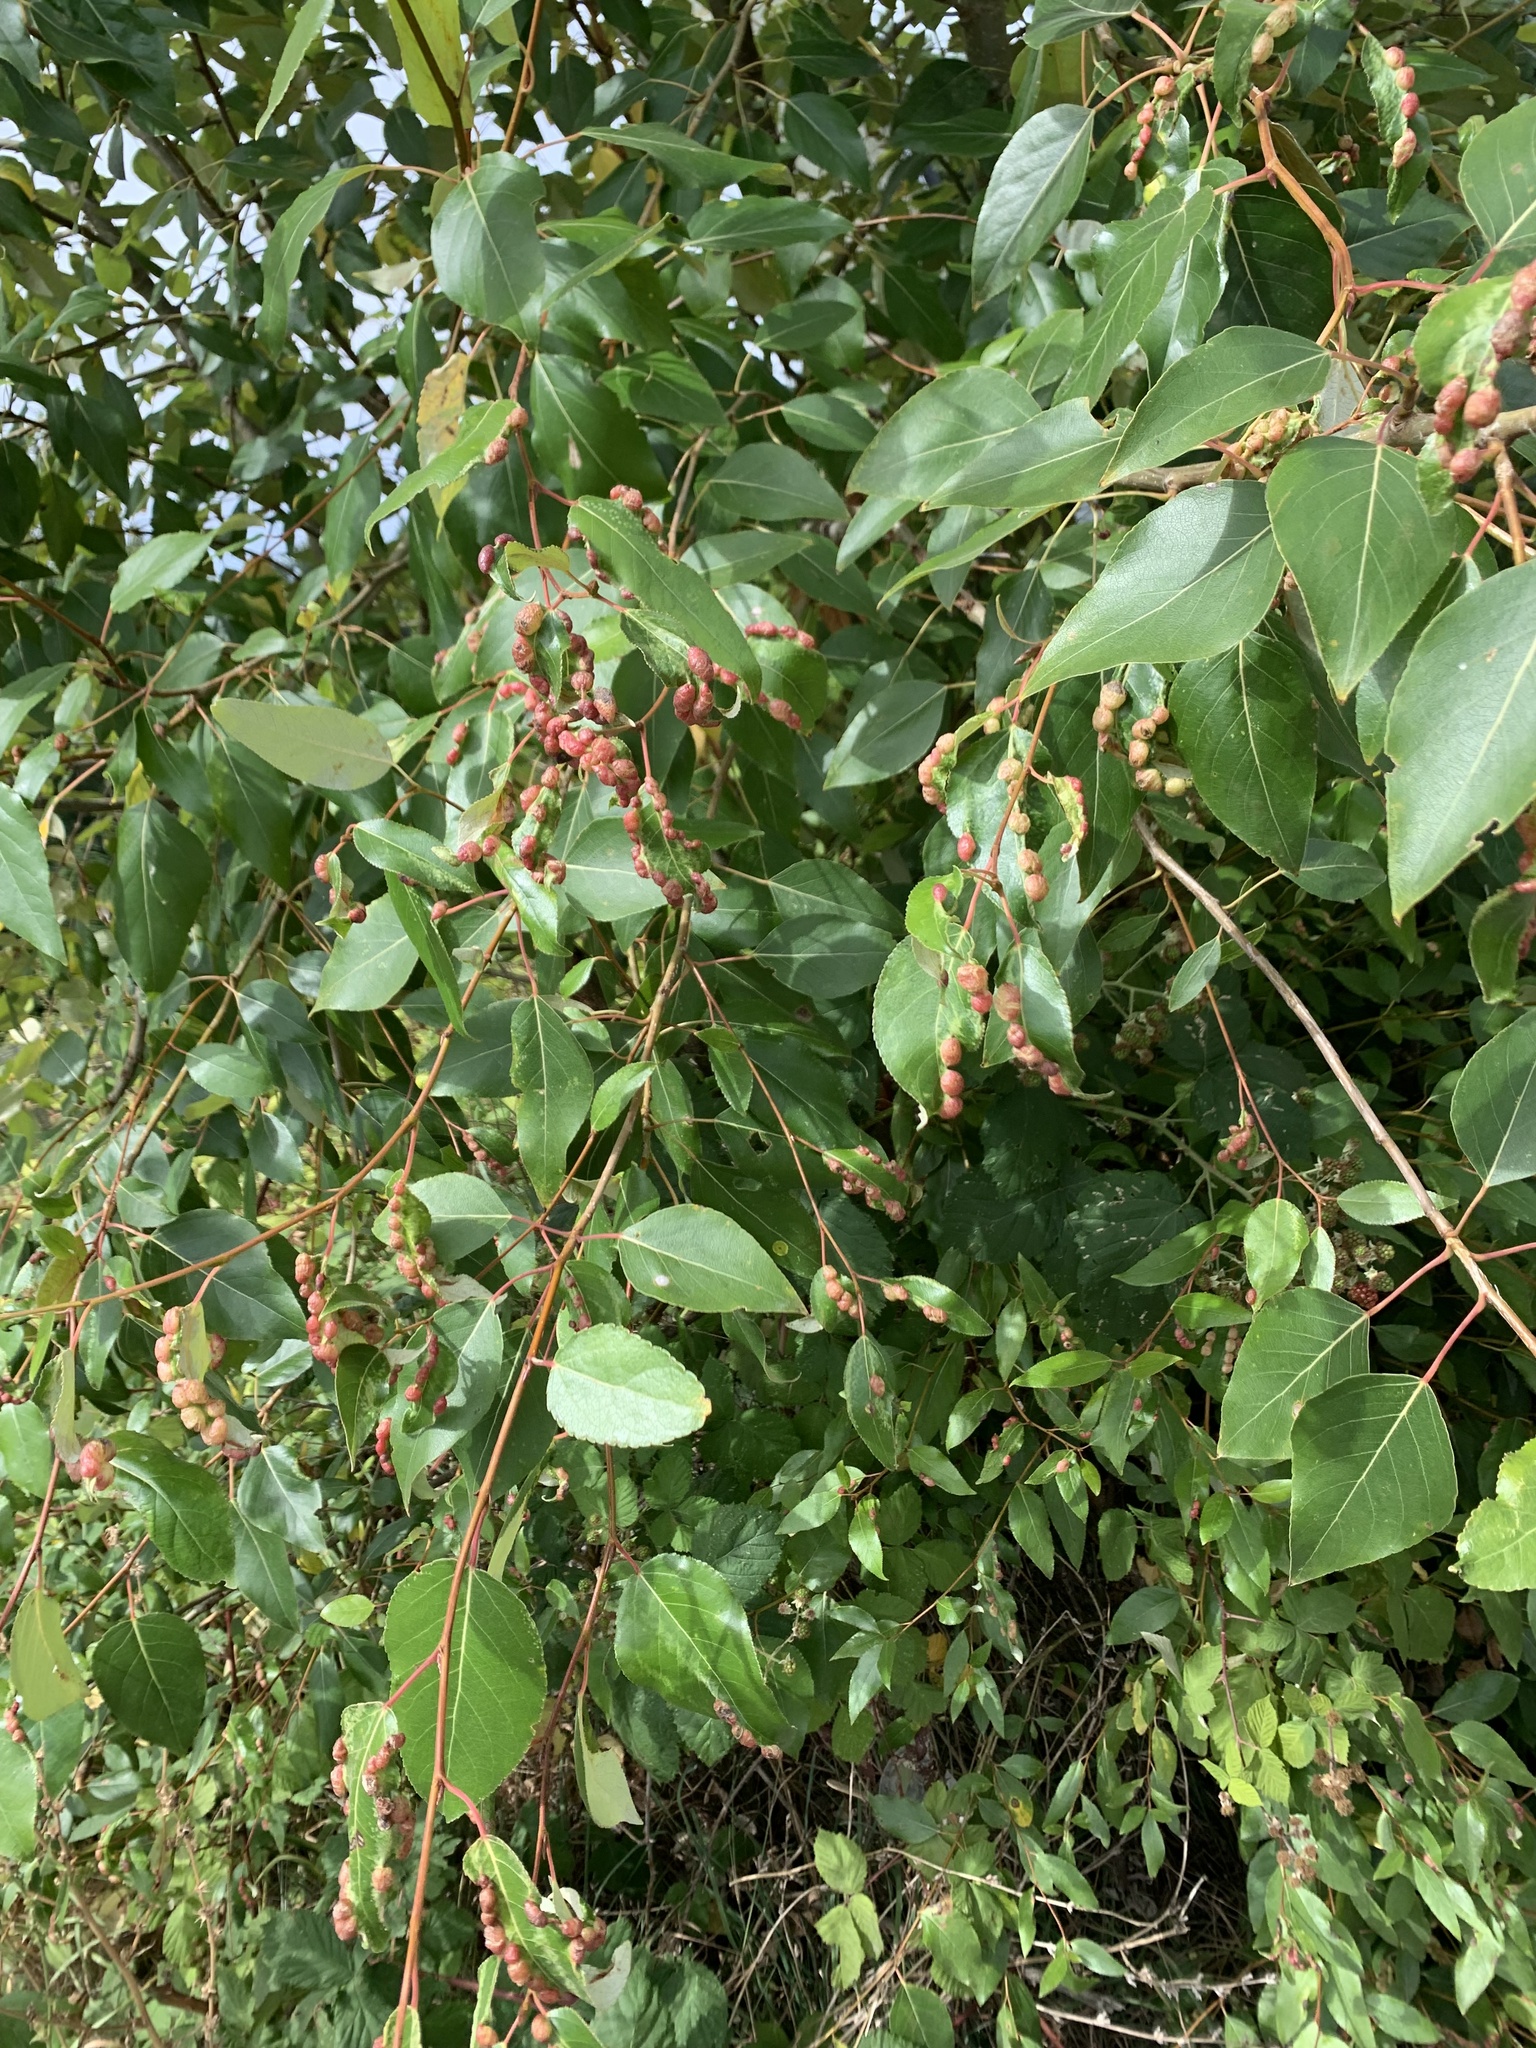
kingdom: Animalia
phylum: Arthropoda
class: Insecta
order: Hemiptera
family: Aphididae
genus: Thecabius
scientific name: Thecabius populimonilis
